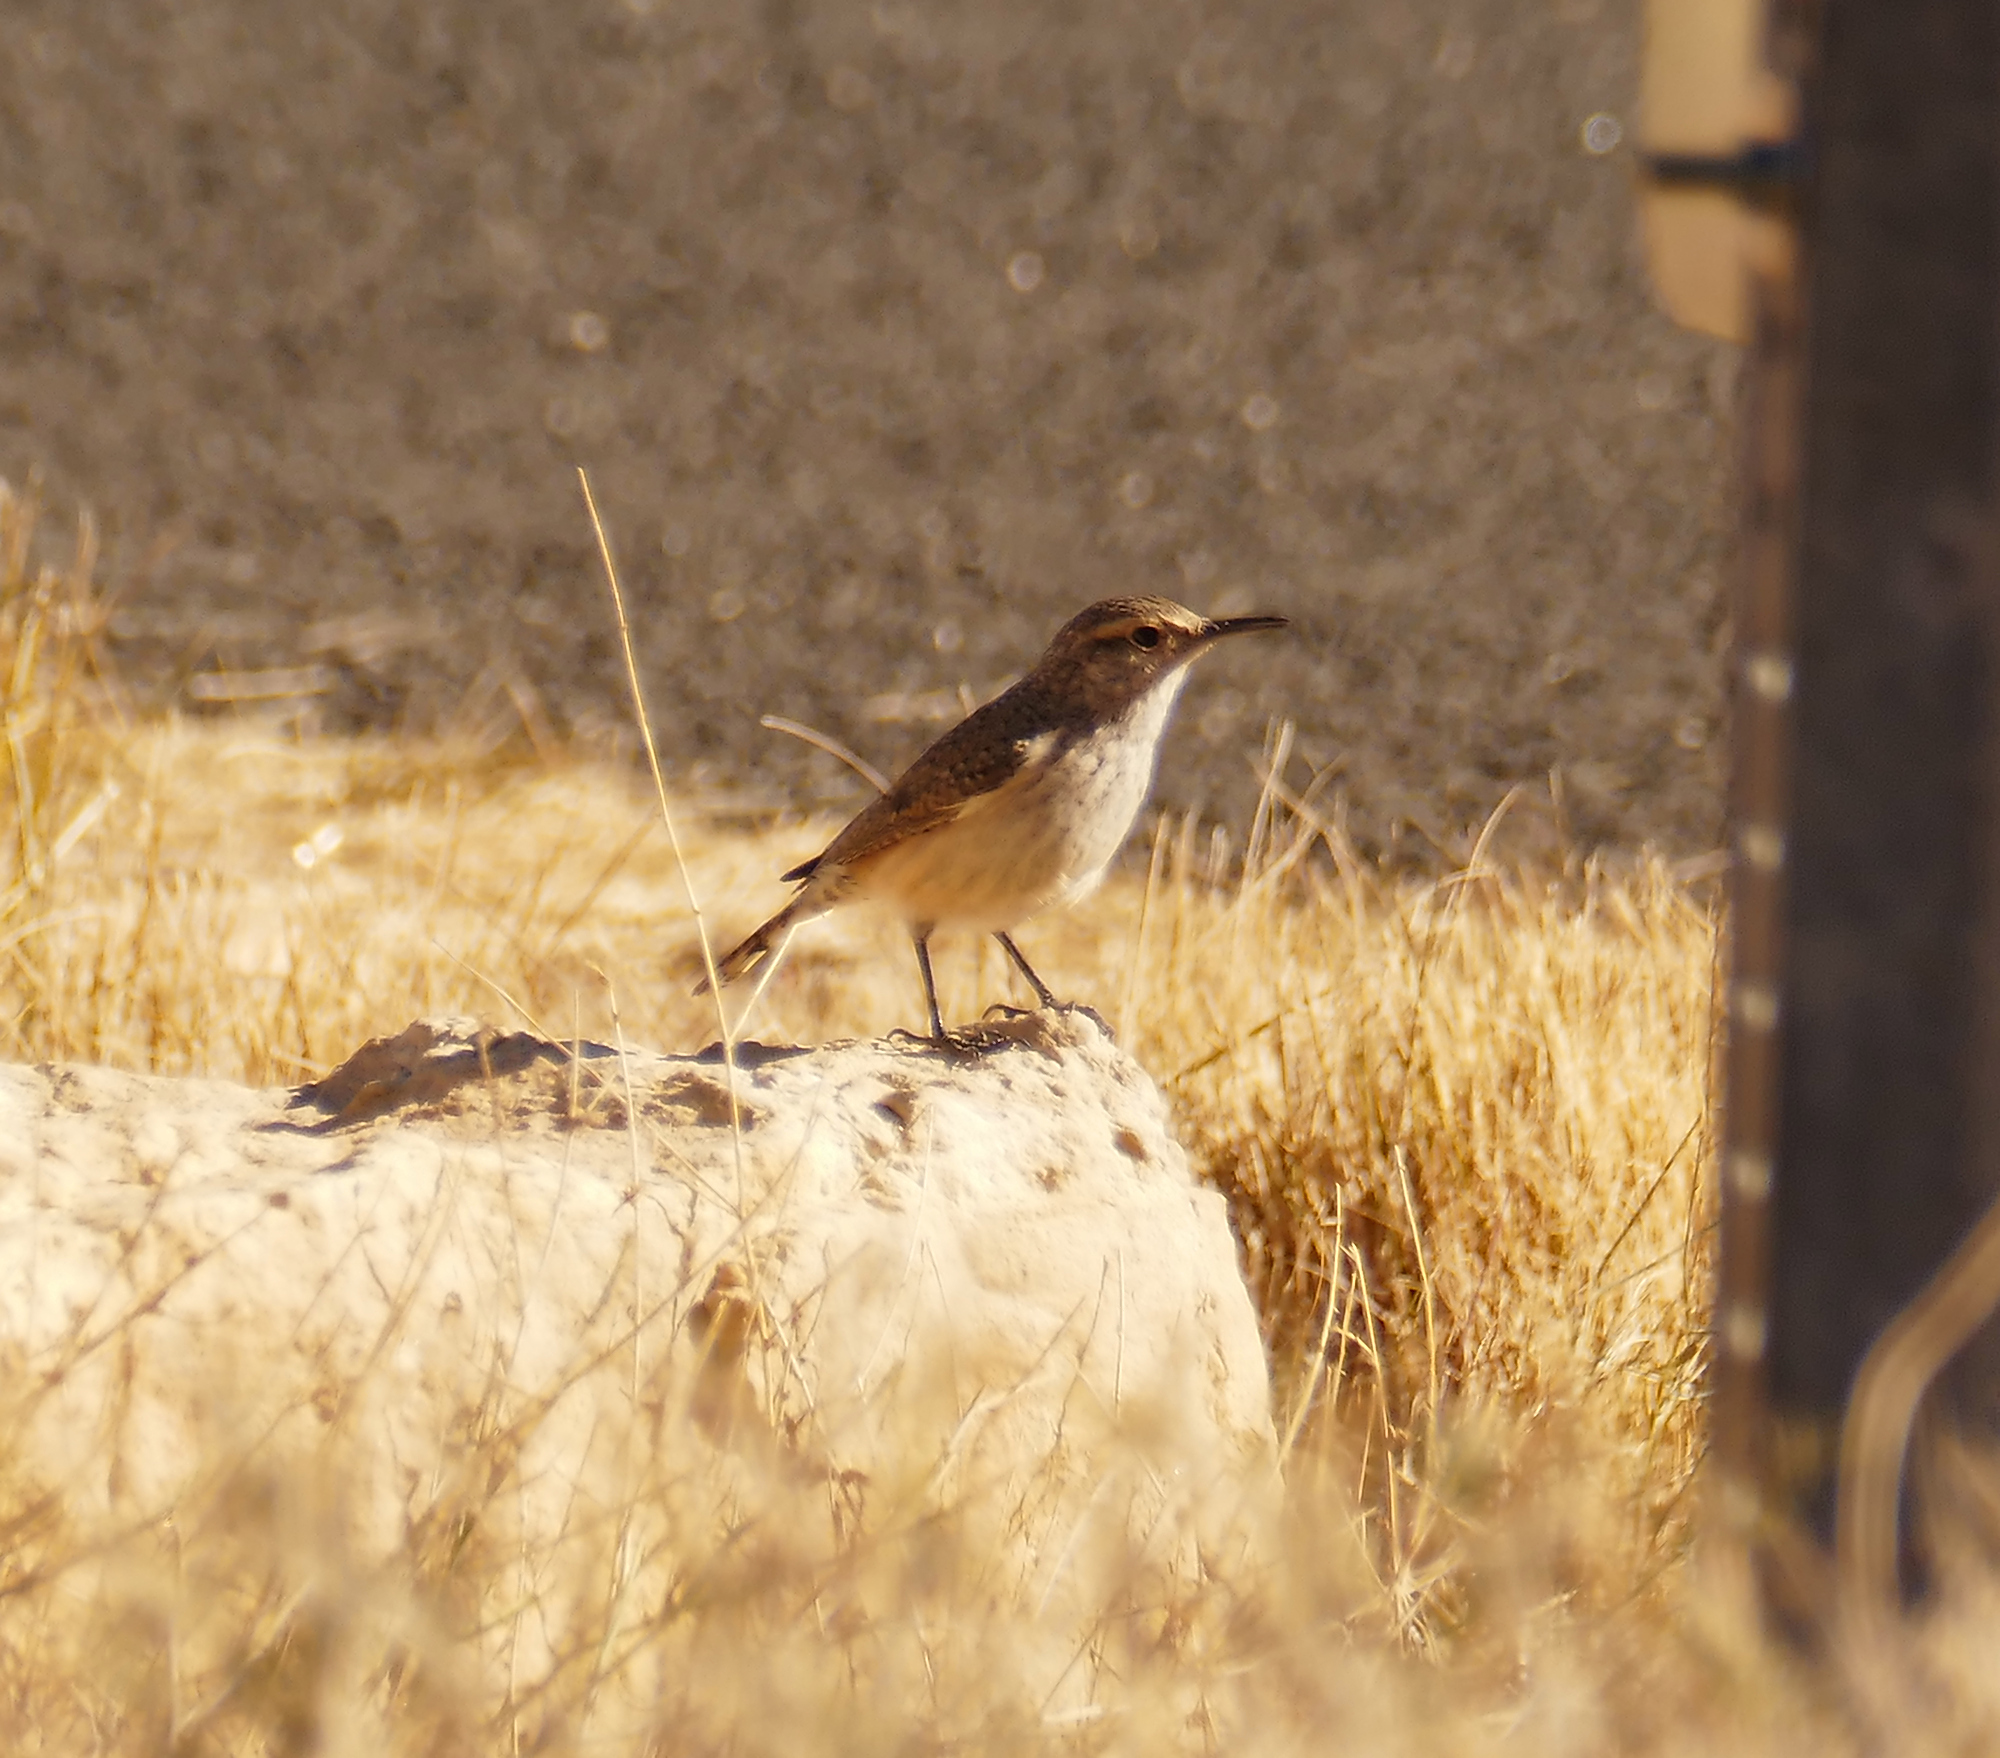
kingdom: Animalia
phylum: Chordata
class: Aves
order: Passeriformes
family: Troglodytidae
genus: Salpinctes
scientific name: Salpinctes obsoletus
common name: Rock wren
